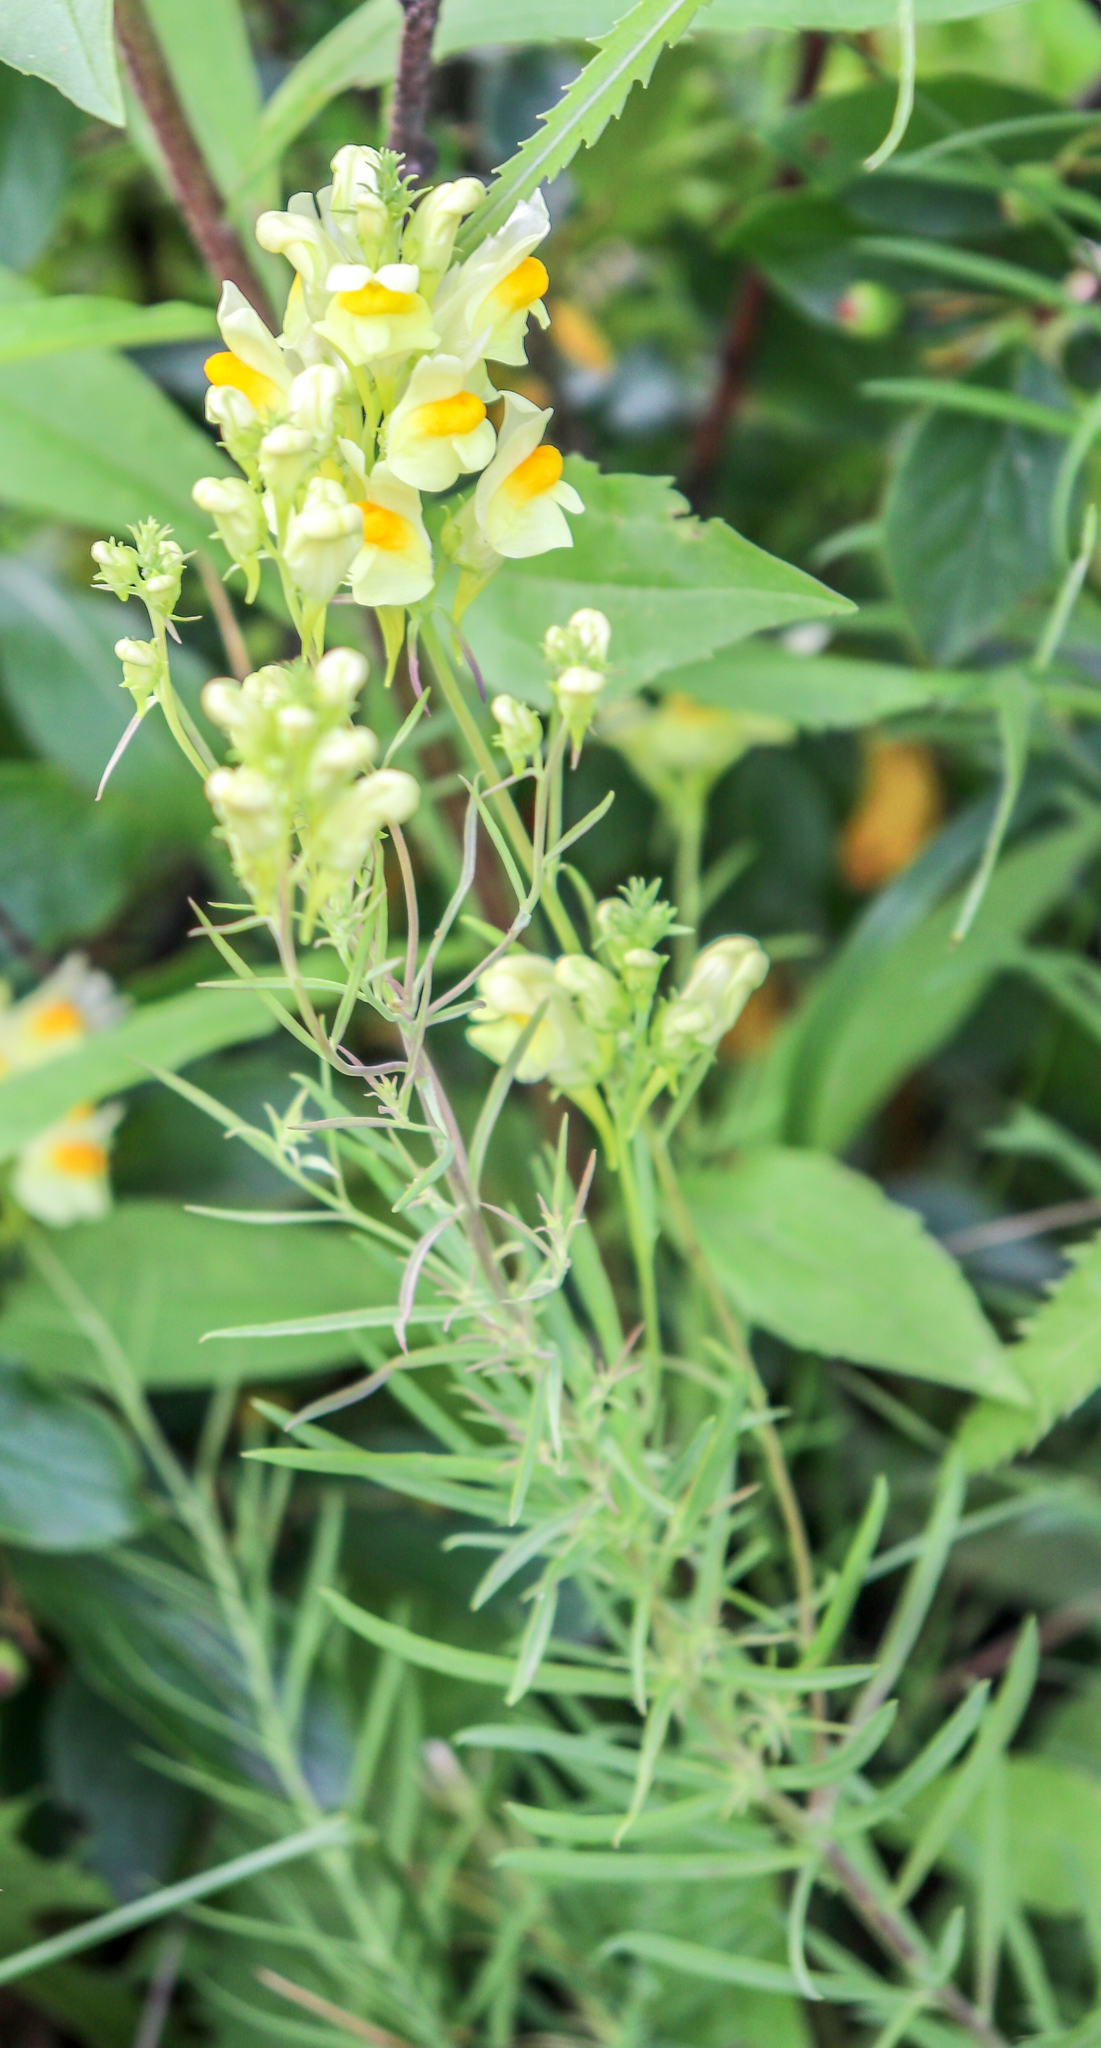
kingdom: Plantae
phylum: Tracheophyta
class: Magnoliopsida
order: Lamiales
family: Plantaginaceae
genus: Linaria
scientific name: Linaria vulgaris
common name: Butter and eggs
